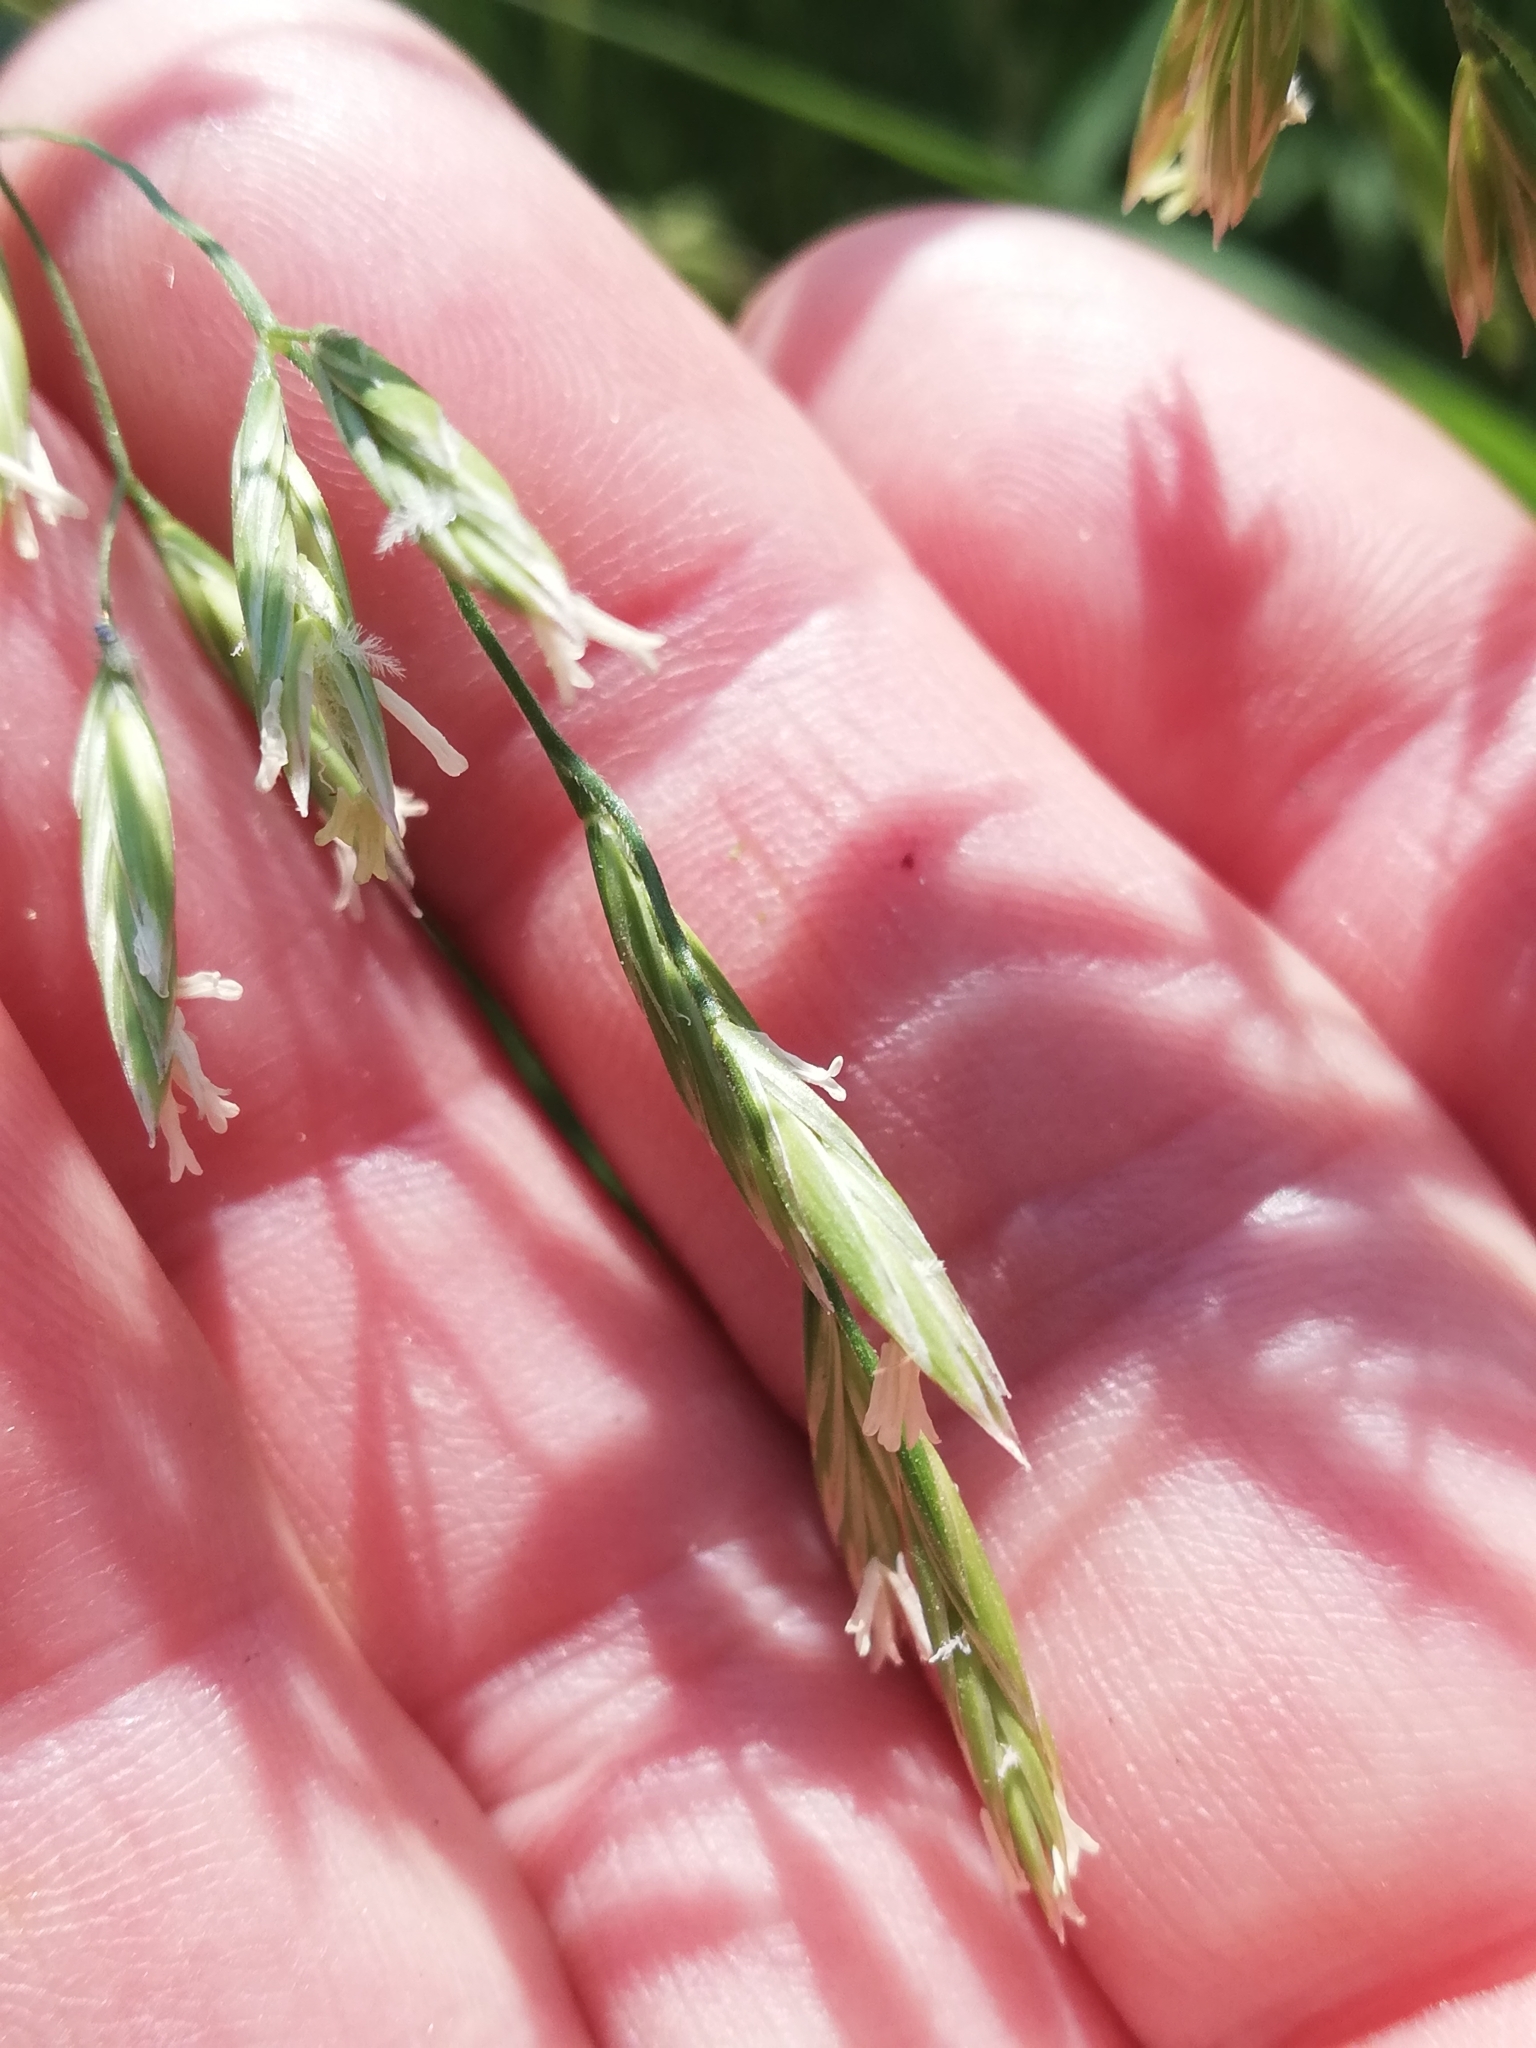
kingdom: Plantae
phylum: Tracheophyta
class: Liliopsida
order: Poales
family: Poaceae
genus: Lolium
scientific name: Lolium arundinaceum
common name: Reed fescue
